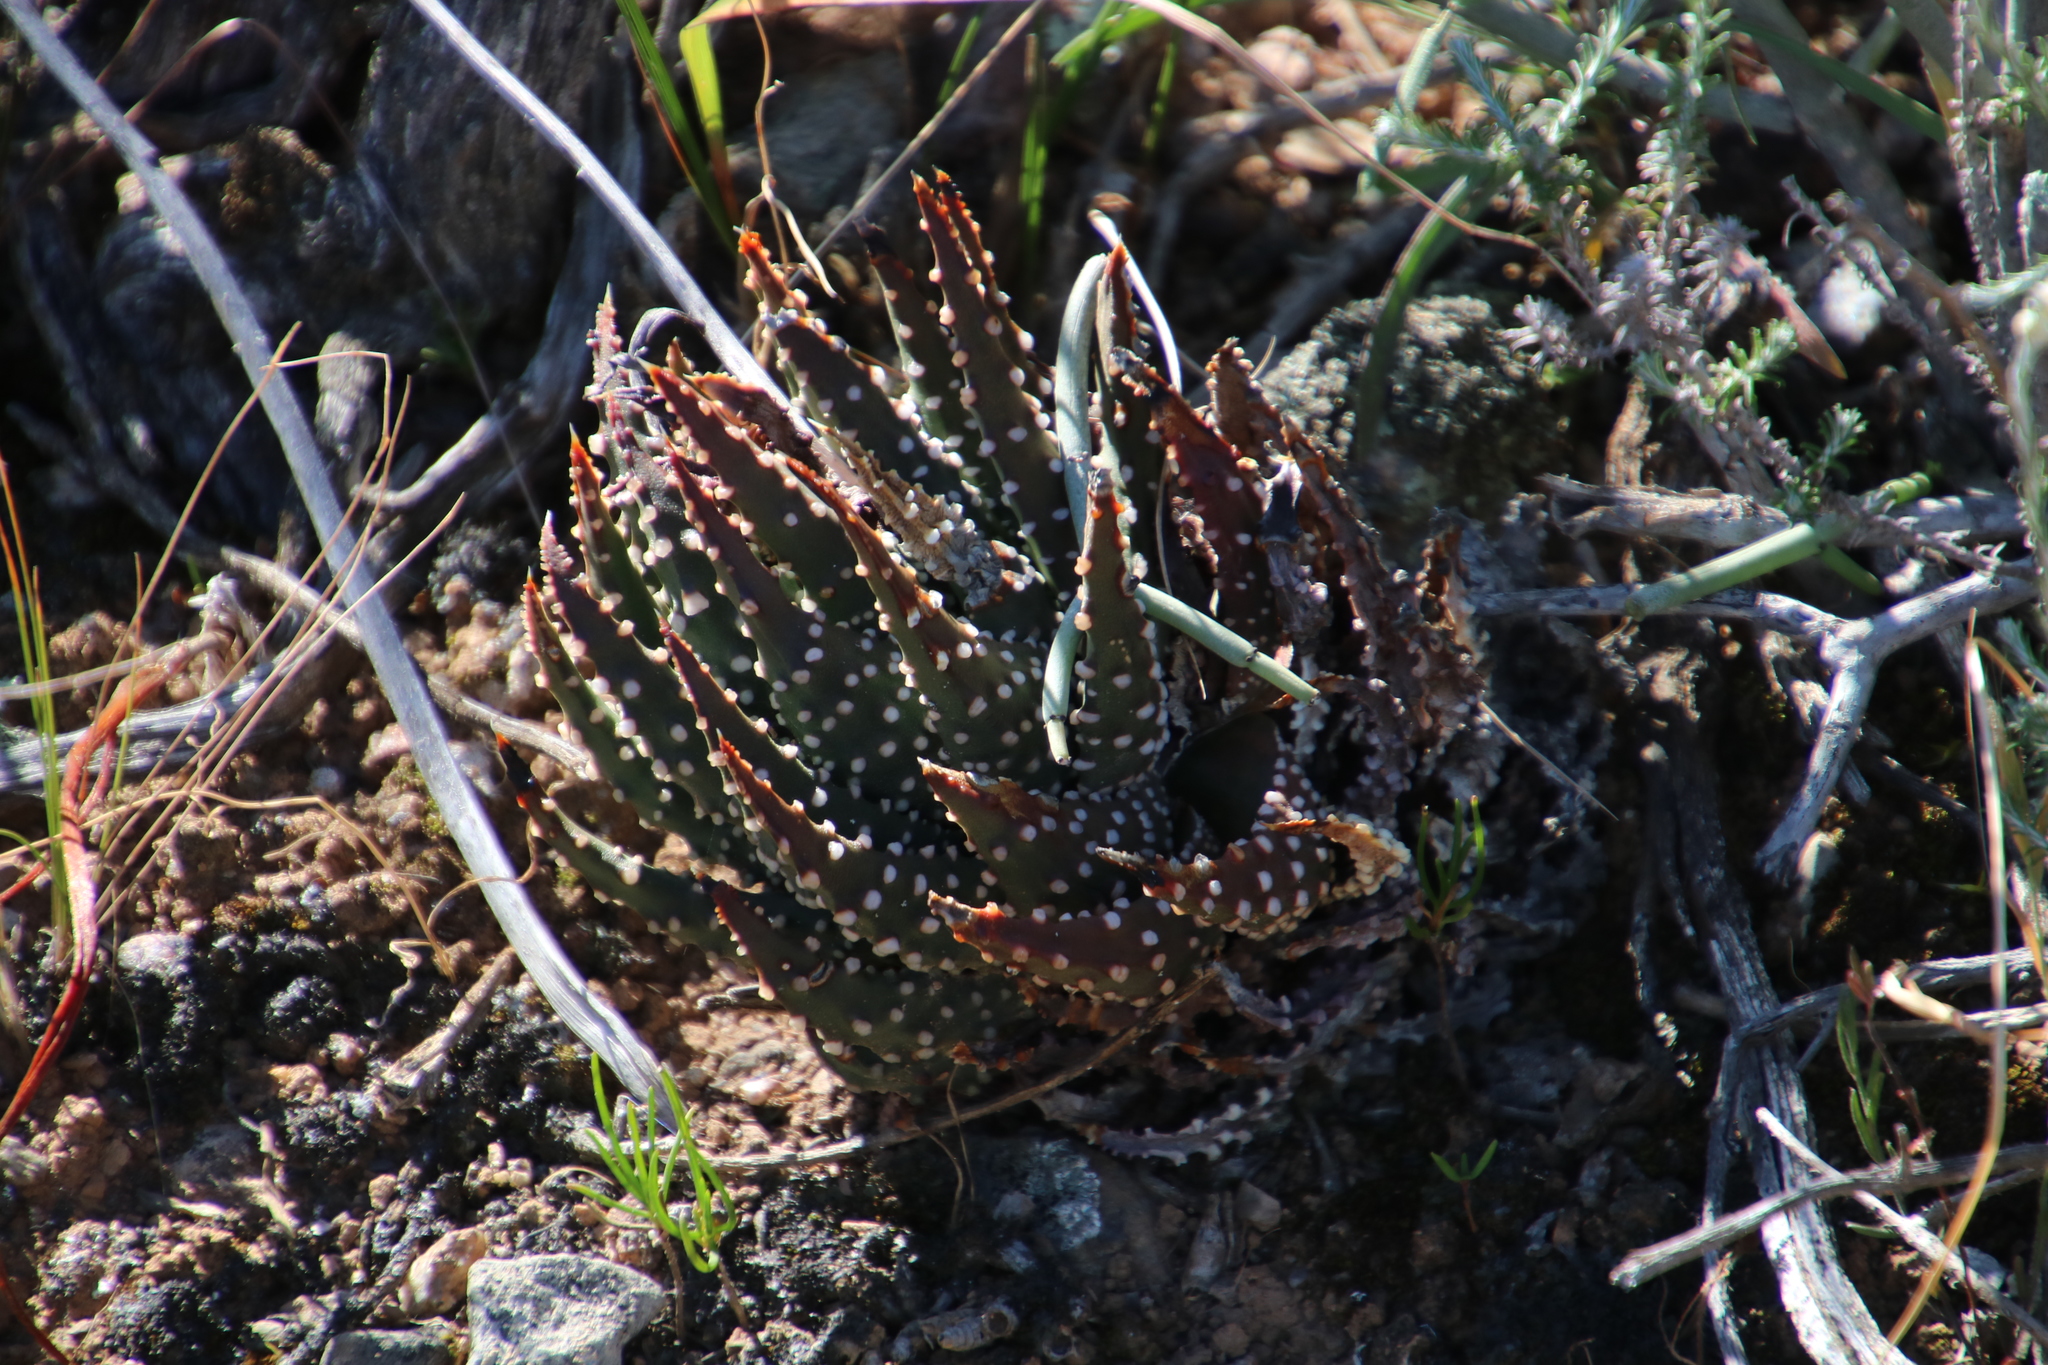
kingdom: Plantae
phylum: Tracheophyta
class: Liliopsida
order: Asparagales
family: Asphodelaceae
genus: Tulista
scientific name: Tulista pumila
